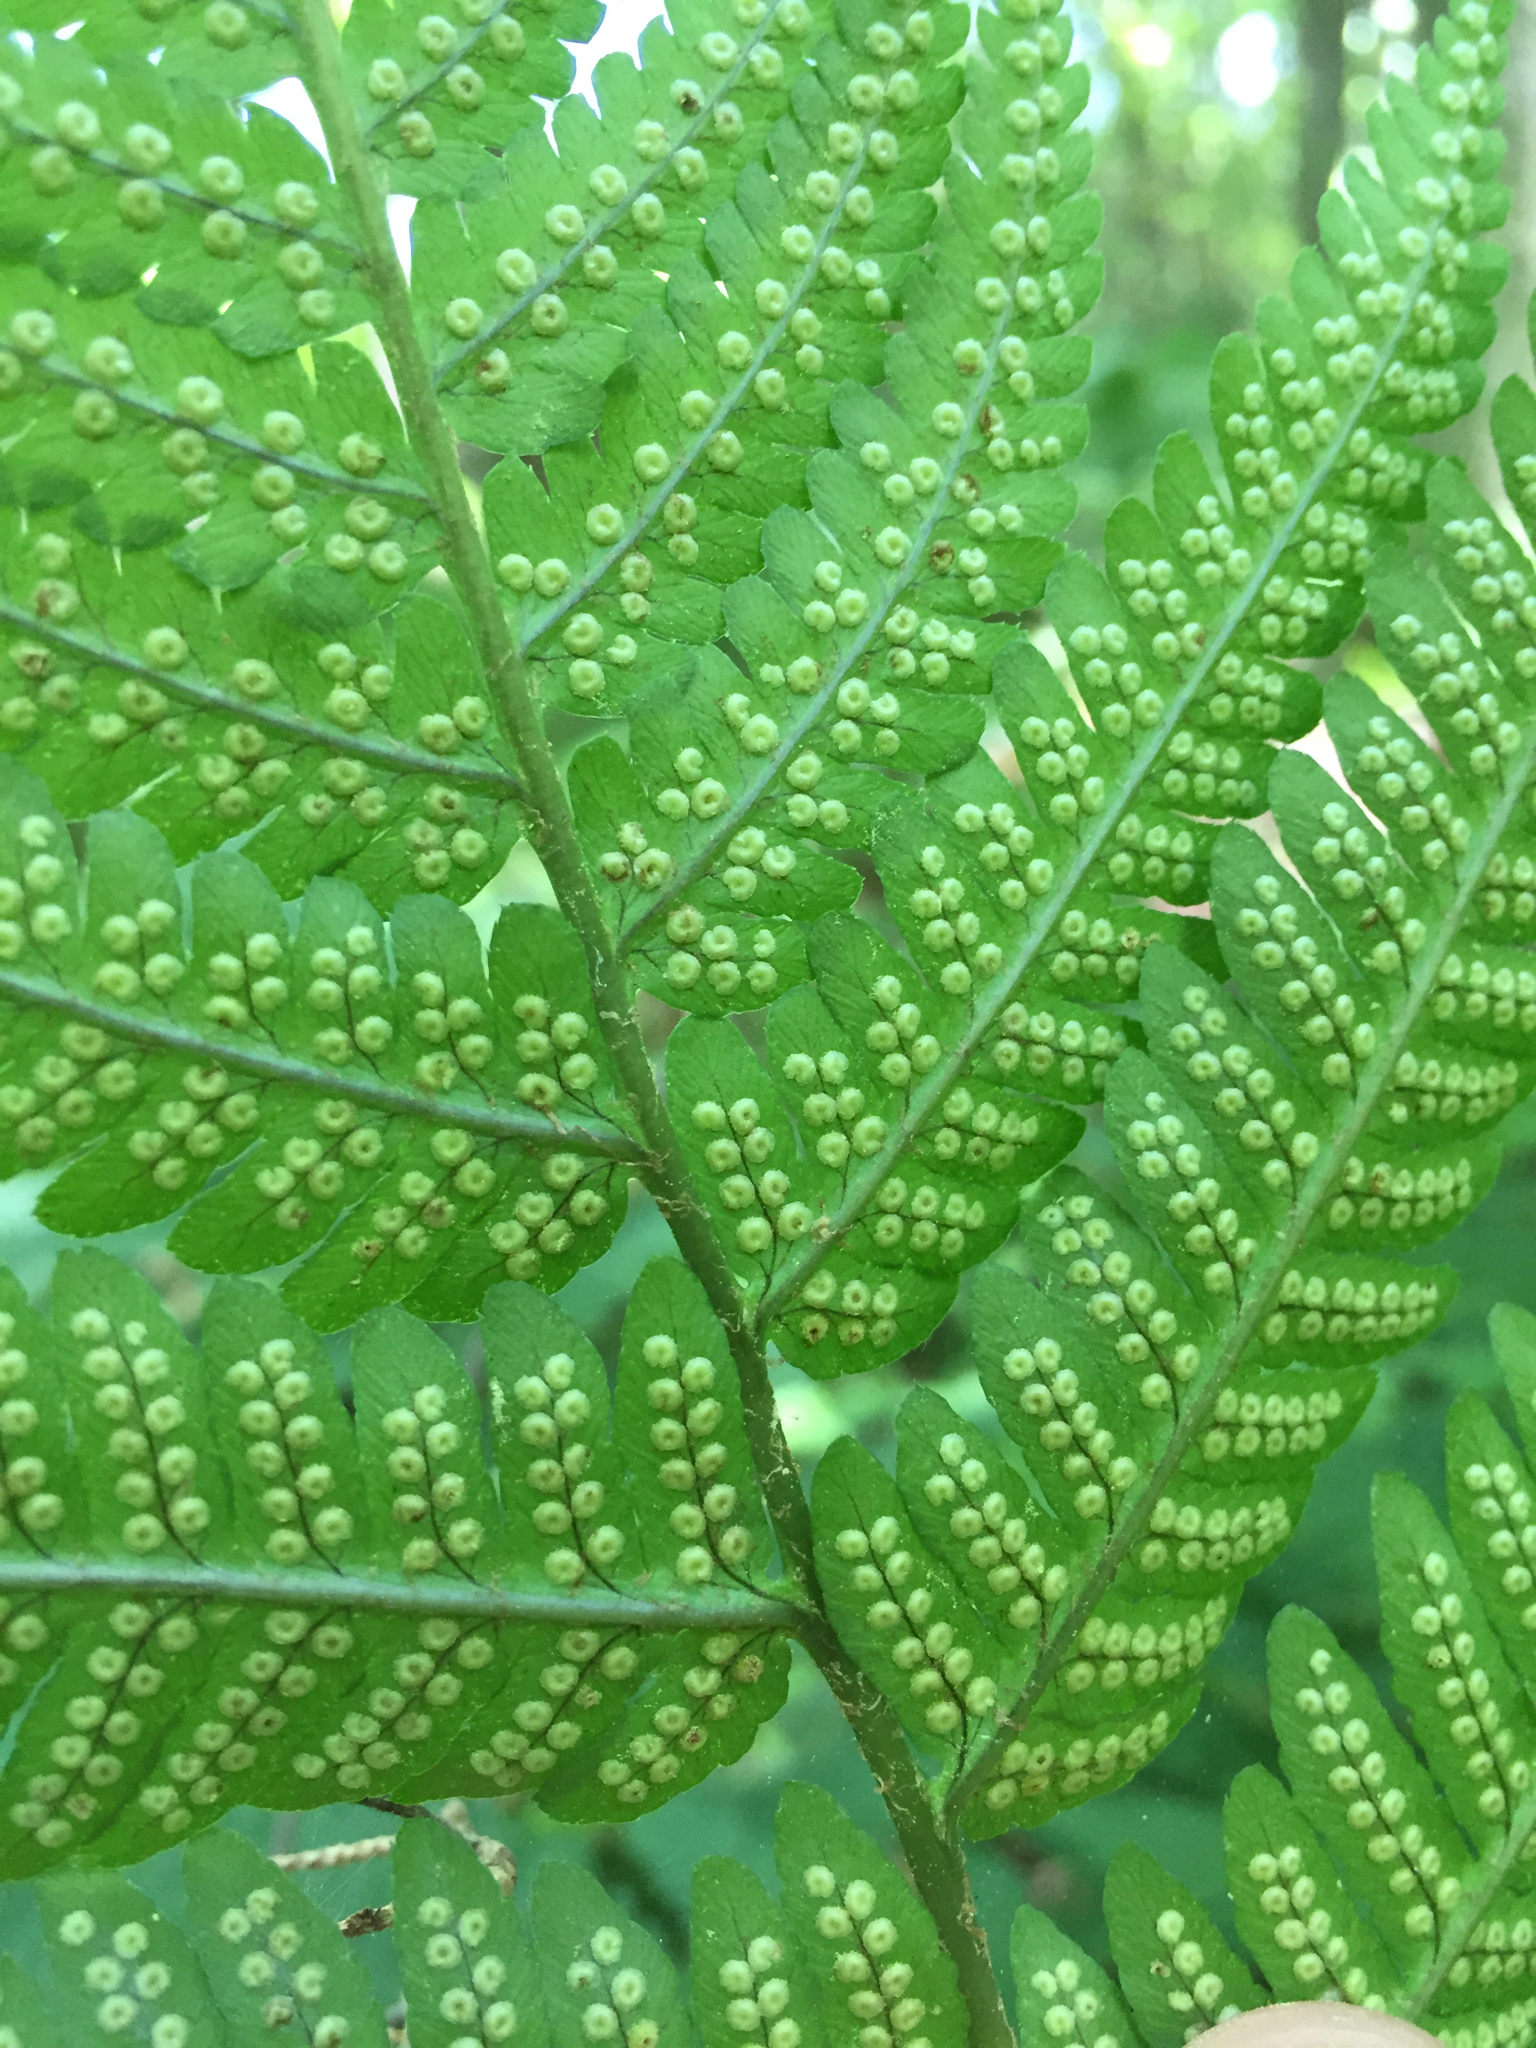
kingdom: Plantae
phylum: Tracheophyta
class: Polypodiopsida
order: Polypodiales
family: Dryopteridaceae
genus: Dryopteris
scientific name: Dryopteris goldieana
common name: Goldie's fern
